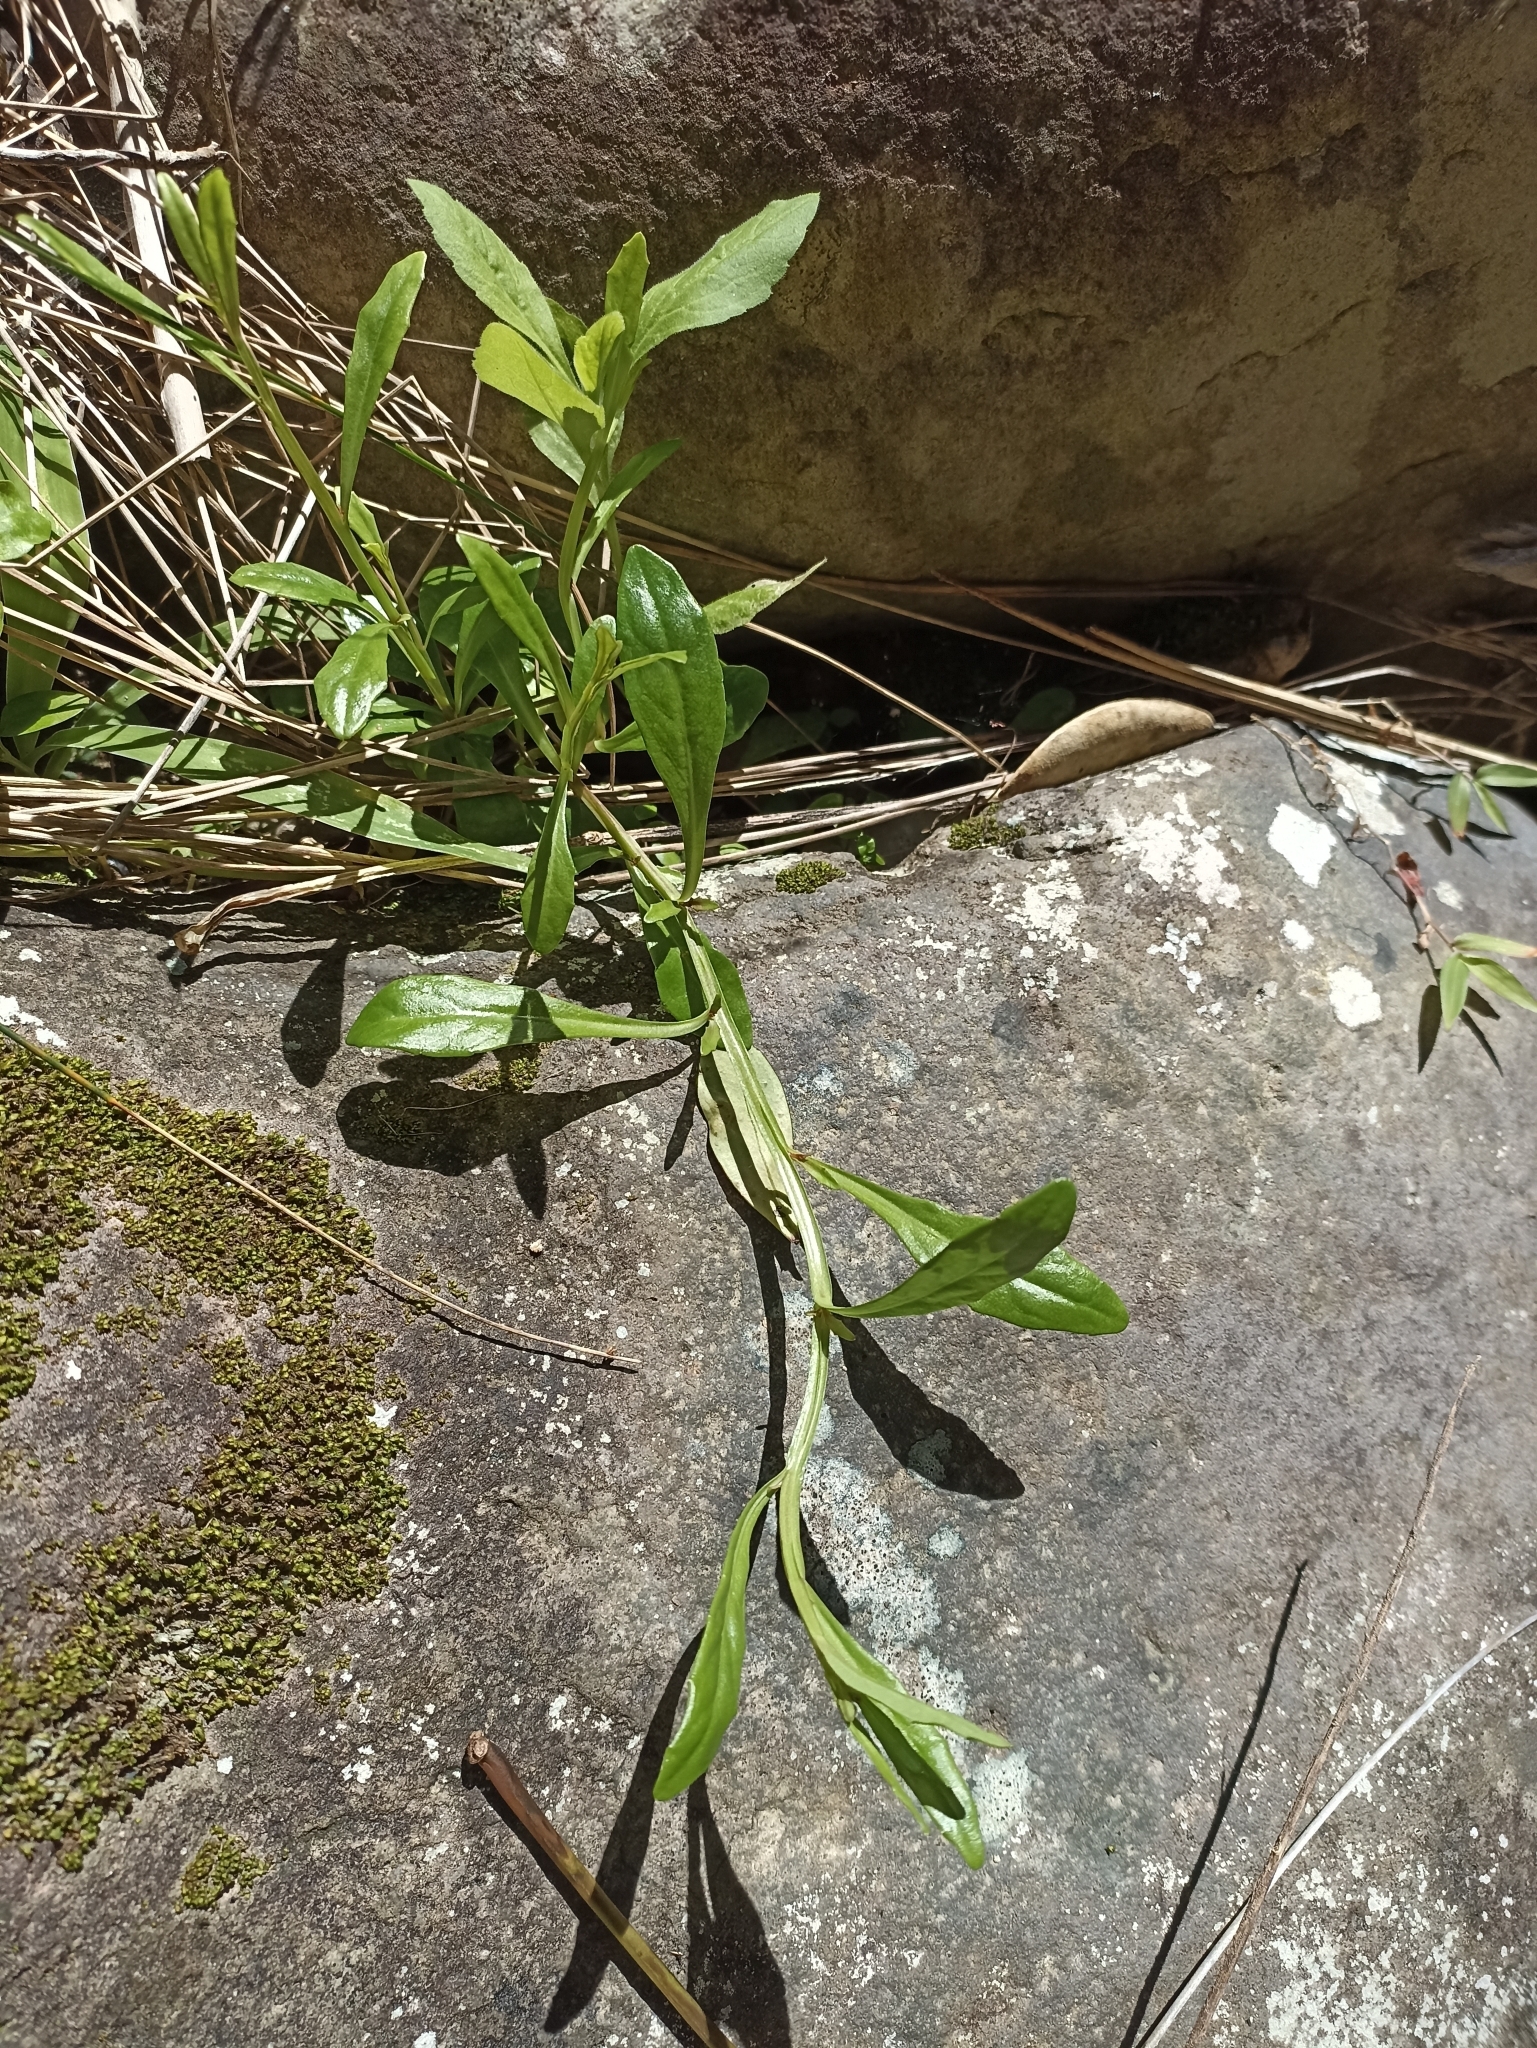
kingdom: Plantae
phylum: Tracheophyta
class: Magnoliopsida
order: Asterales
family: Campanulaceae
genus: Lobelia
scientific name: Lobelia anceps
